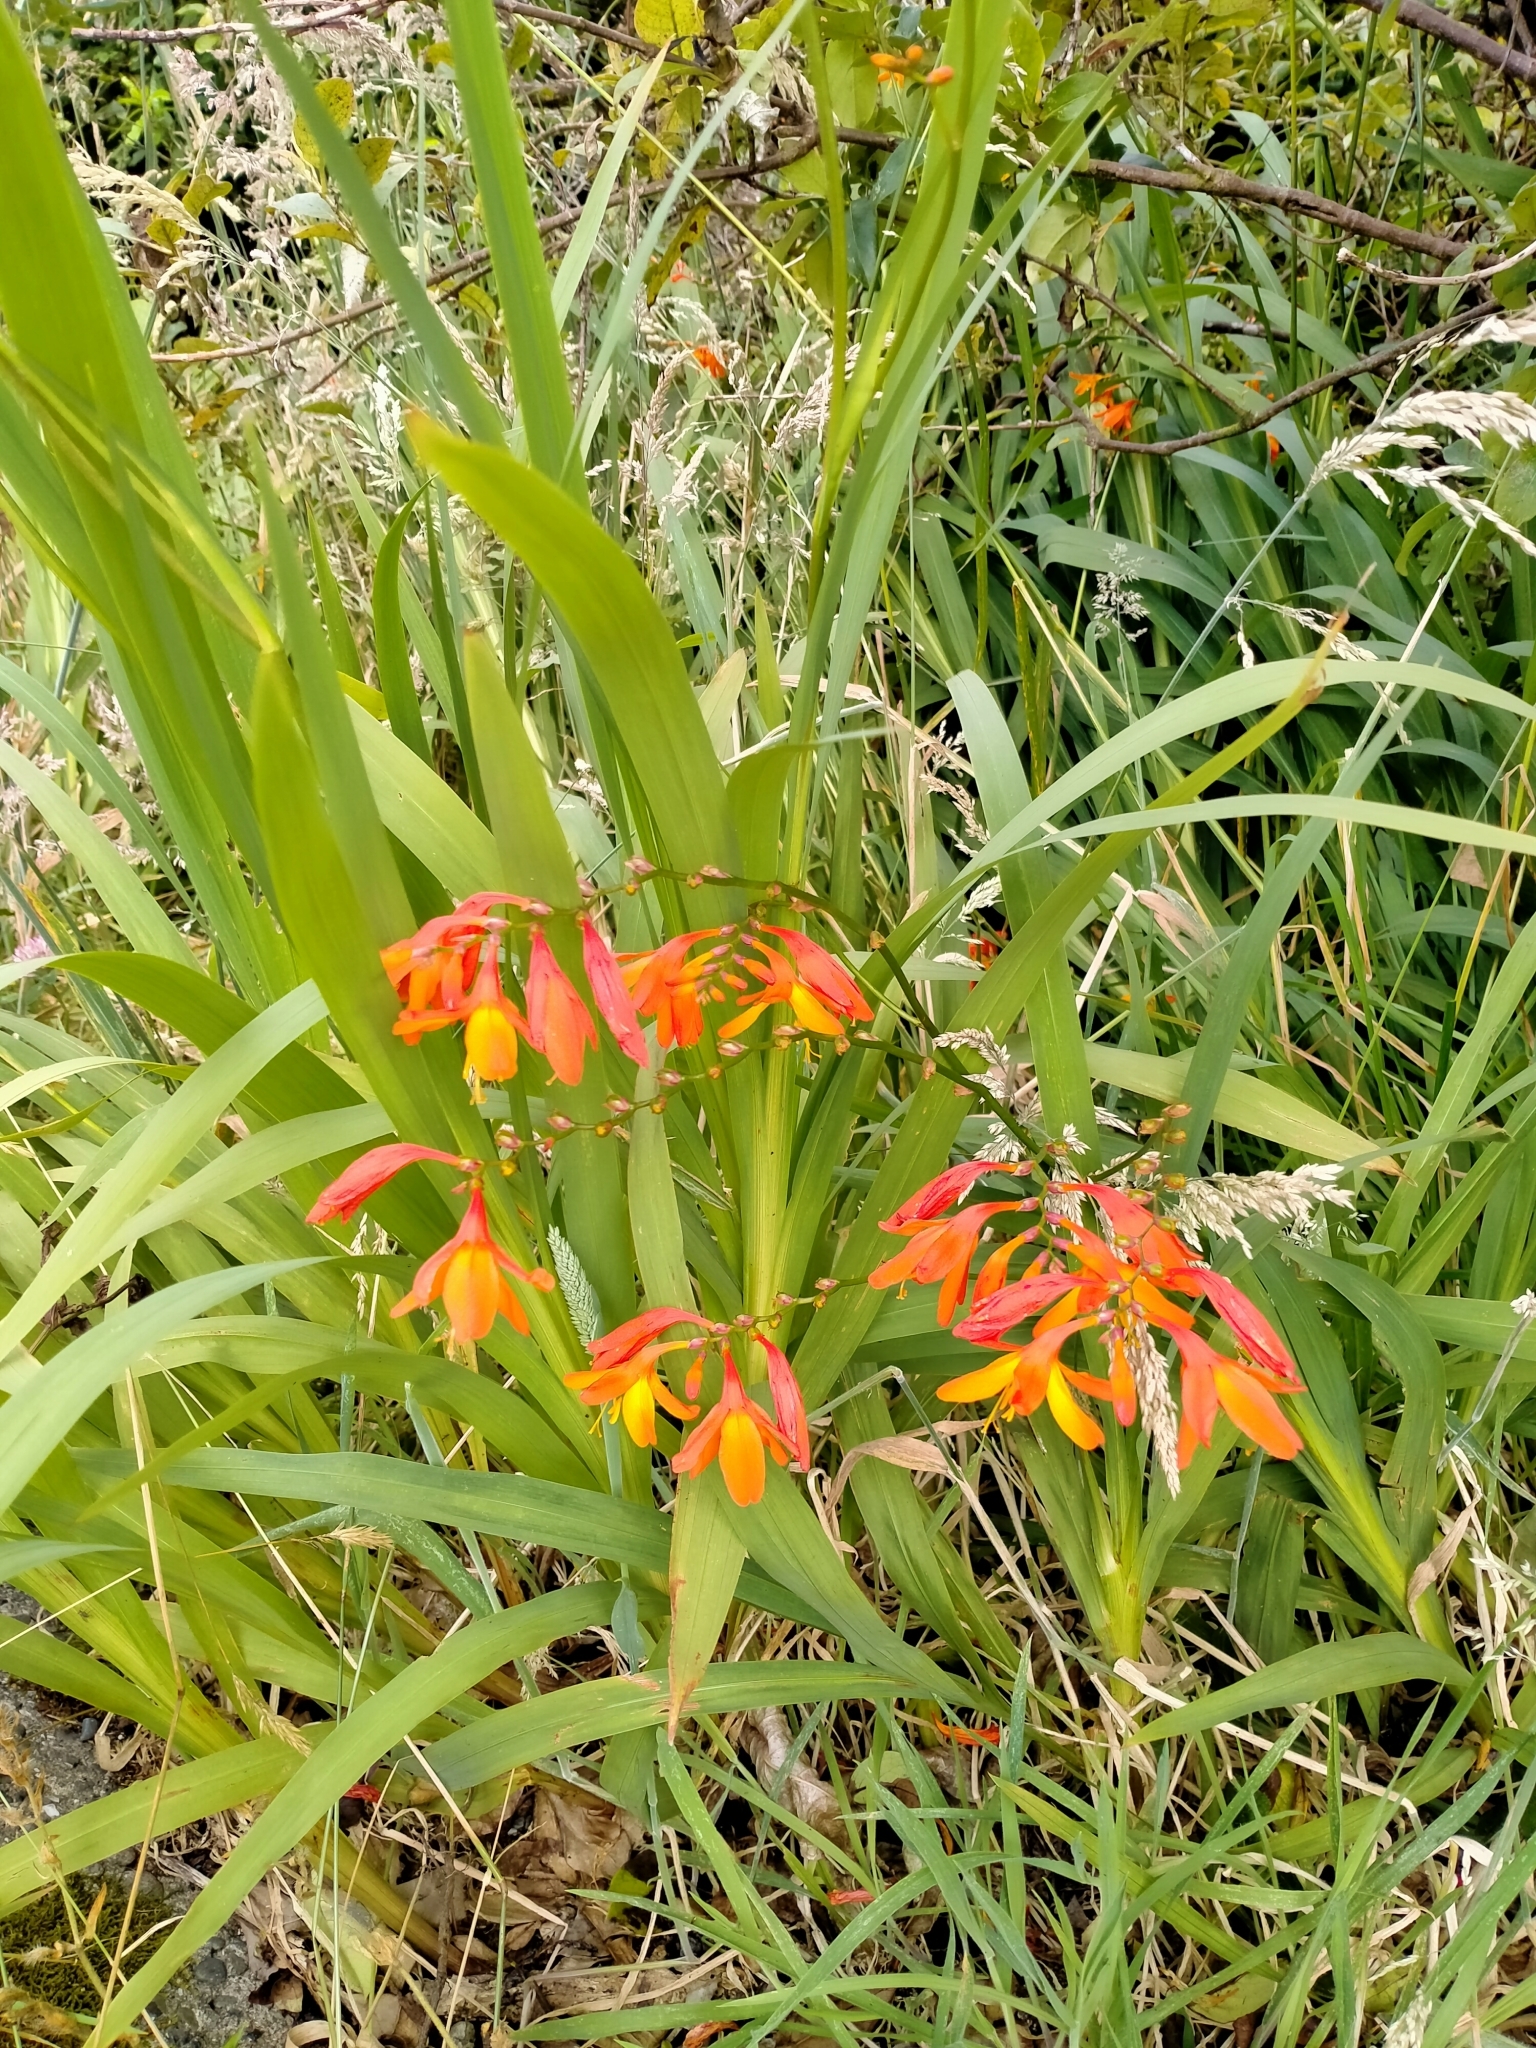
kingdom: Plantae
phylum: Tracheophyta
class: Liliopsida
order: Asparagales
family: Iridaceae
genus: Crocosmia
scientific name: Crocosmia crocosmiiflora
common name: Montbretia
